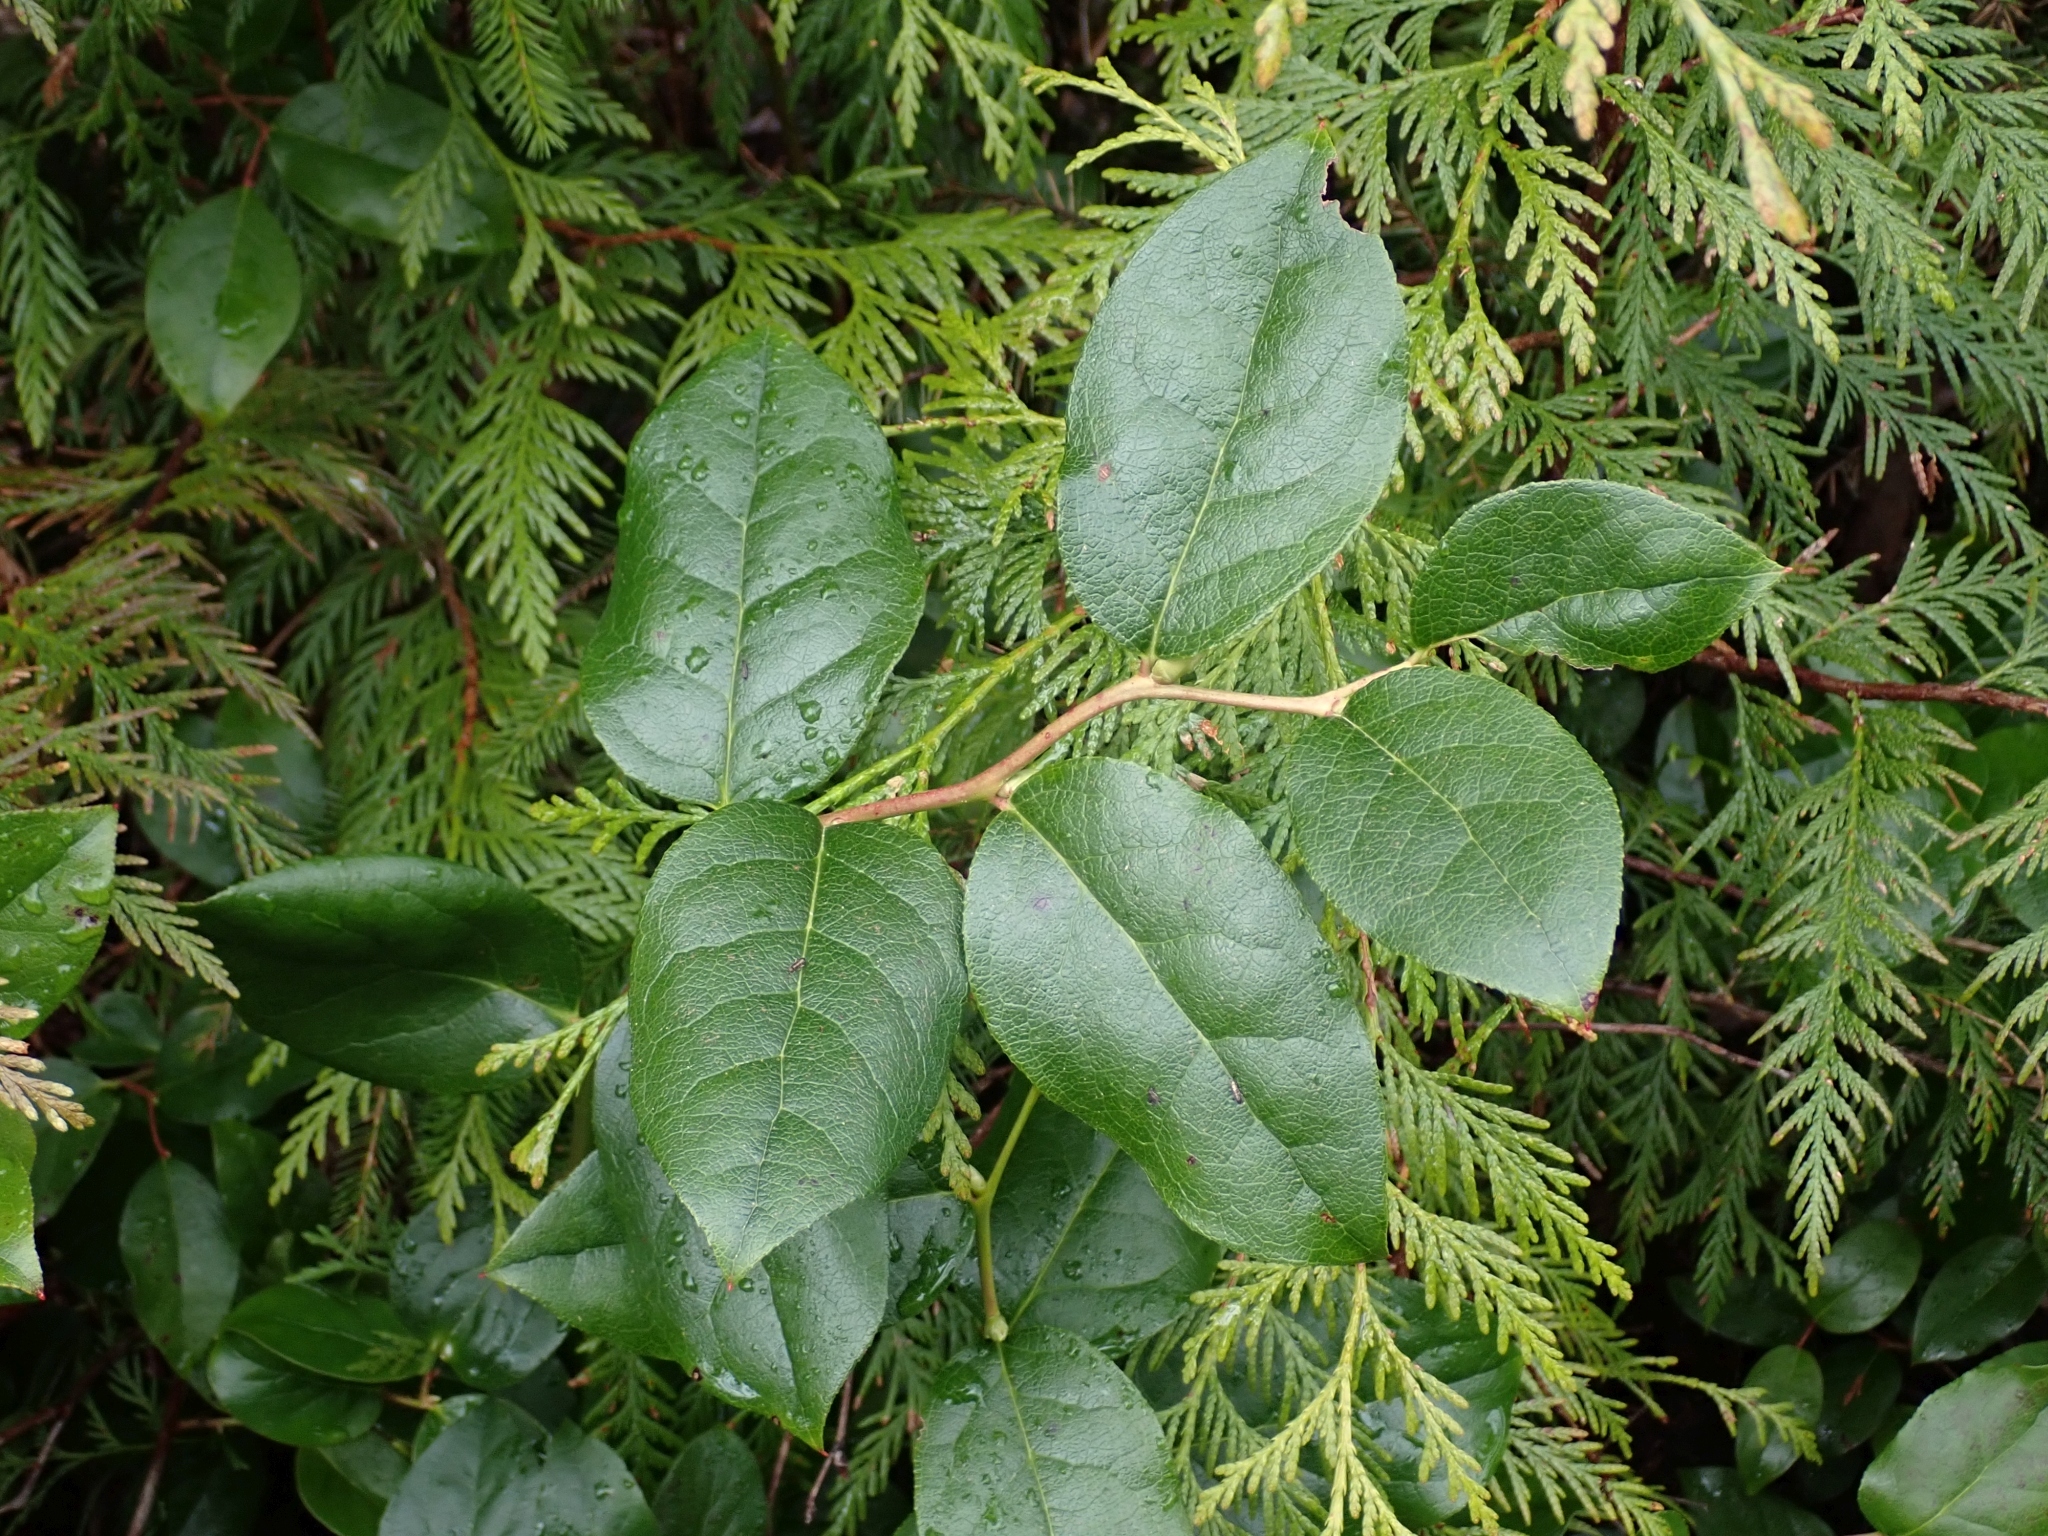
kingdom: Plantae
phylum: Tracheophyta
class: Magnoliopsida
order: Ericales
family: Ericaceae
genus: Gaultheria
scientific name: Gaultheria shallon
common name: Shallon
